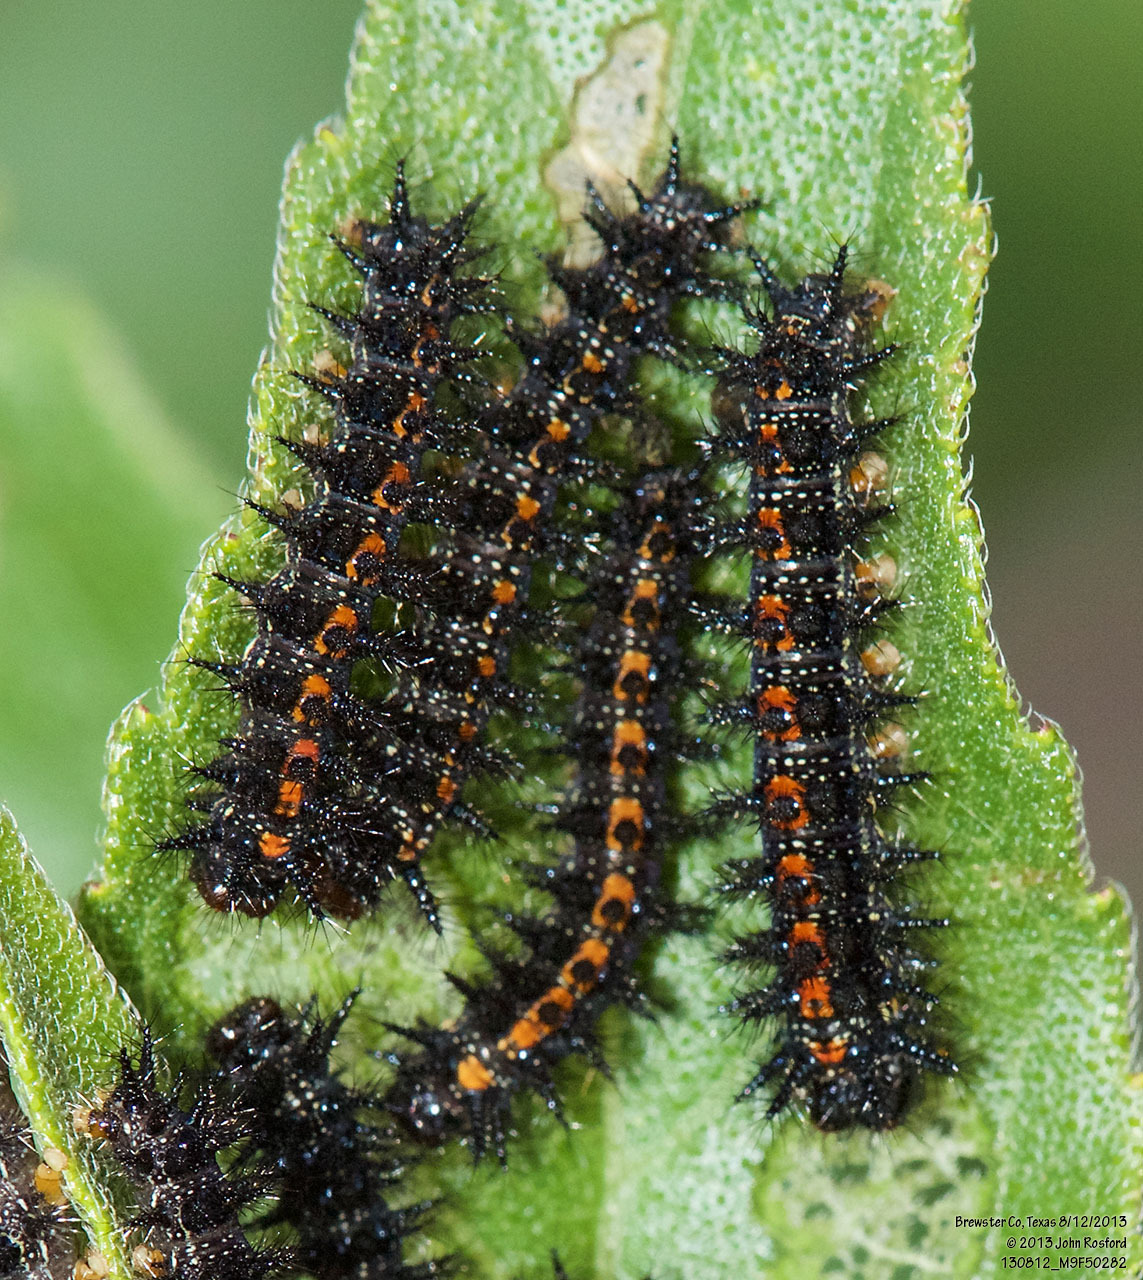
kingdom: Animalia
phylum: Arthropoda
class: Insecta
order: Lepidoptera
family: Nymphalidae
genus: Chlosyne
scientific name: Chlosyne lacinia
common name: Bordered patch
